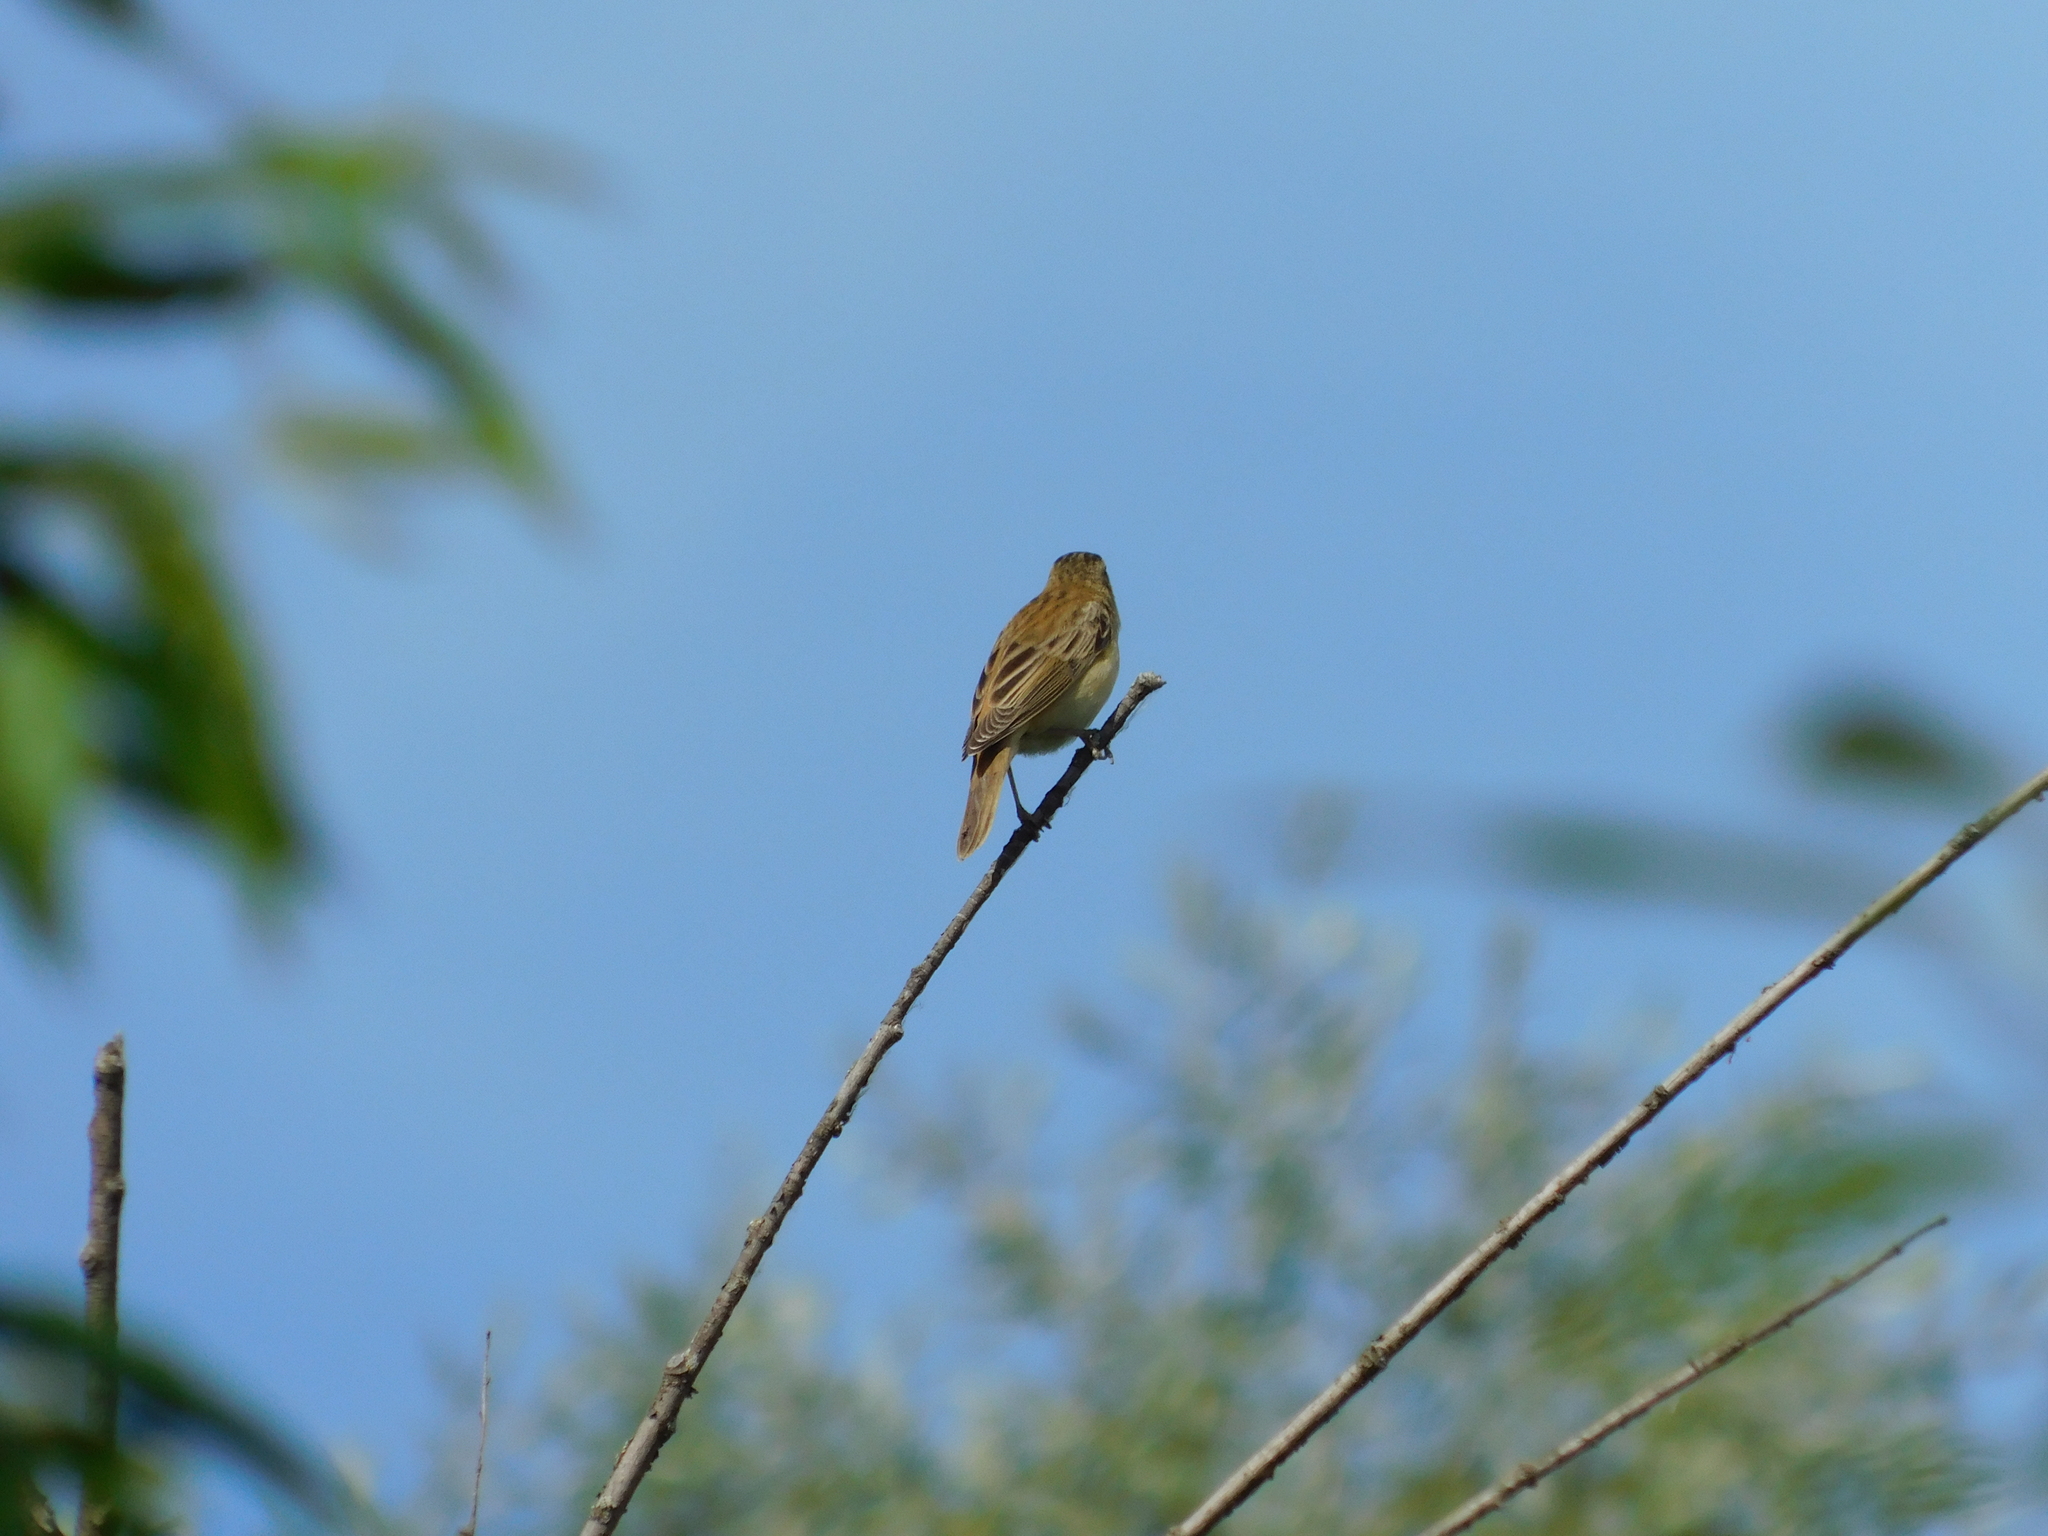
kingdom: Animalia
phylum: Chordata
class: Aves
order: Passeriformes
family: Acrocephalidae
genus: Acrocephalus
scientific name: Acrocephalus schoenobaenus
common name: Sedge warbler
